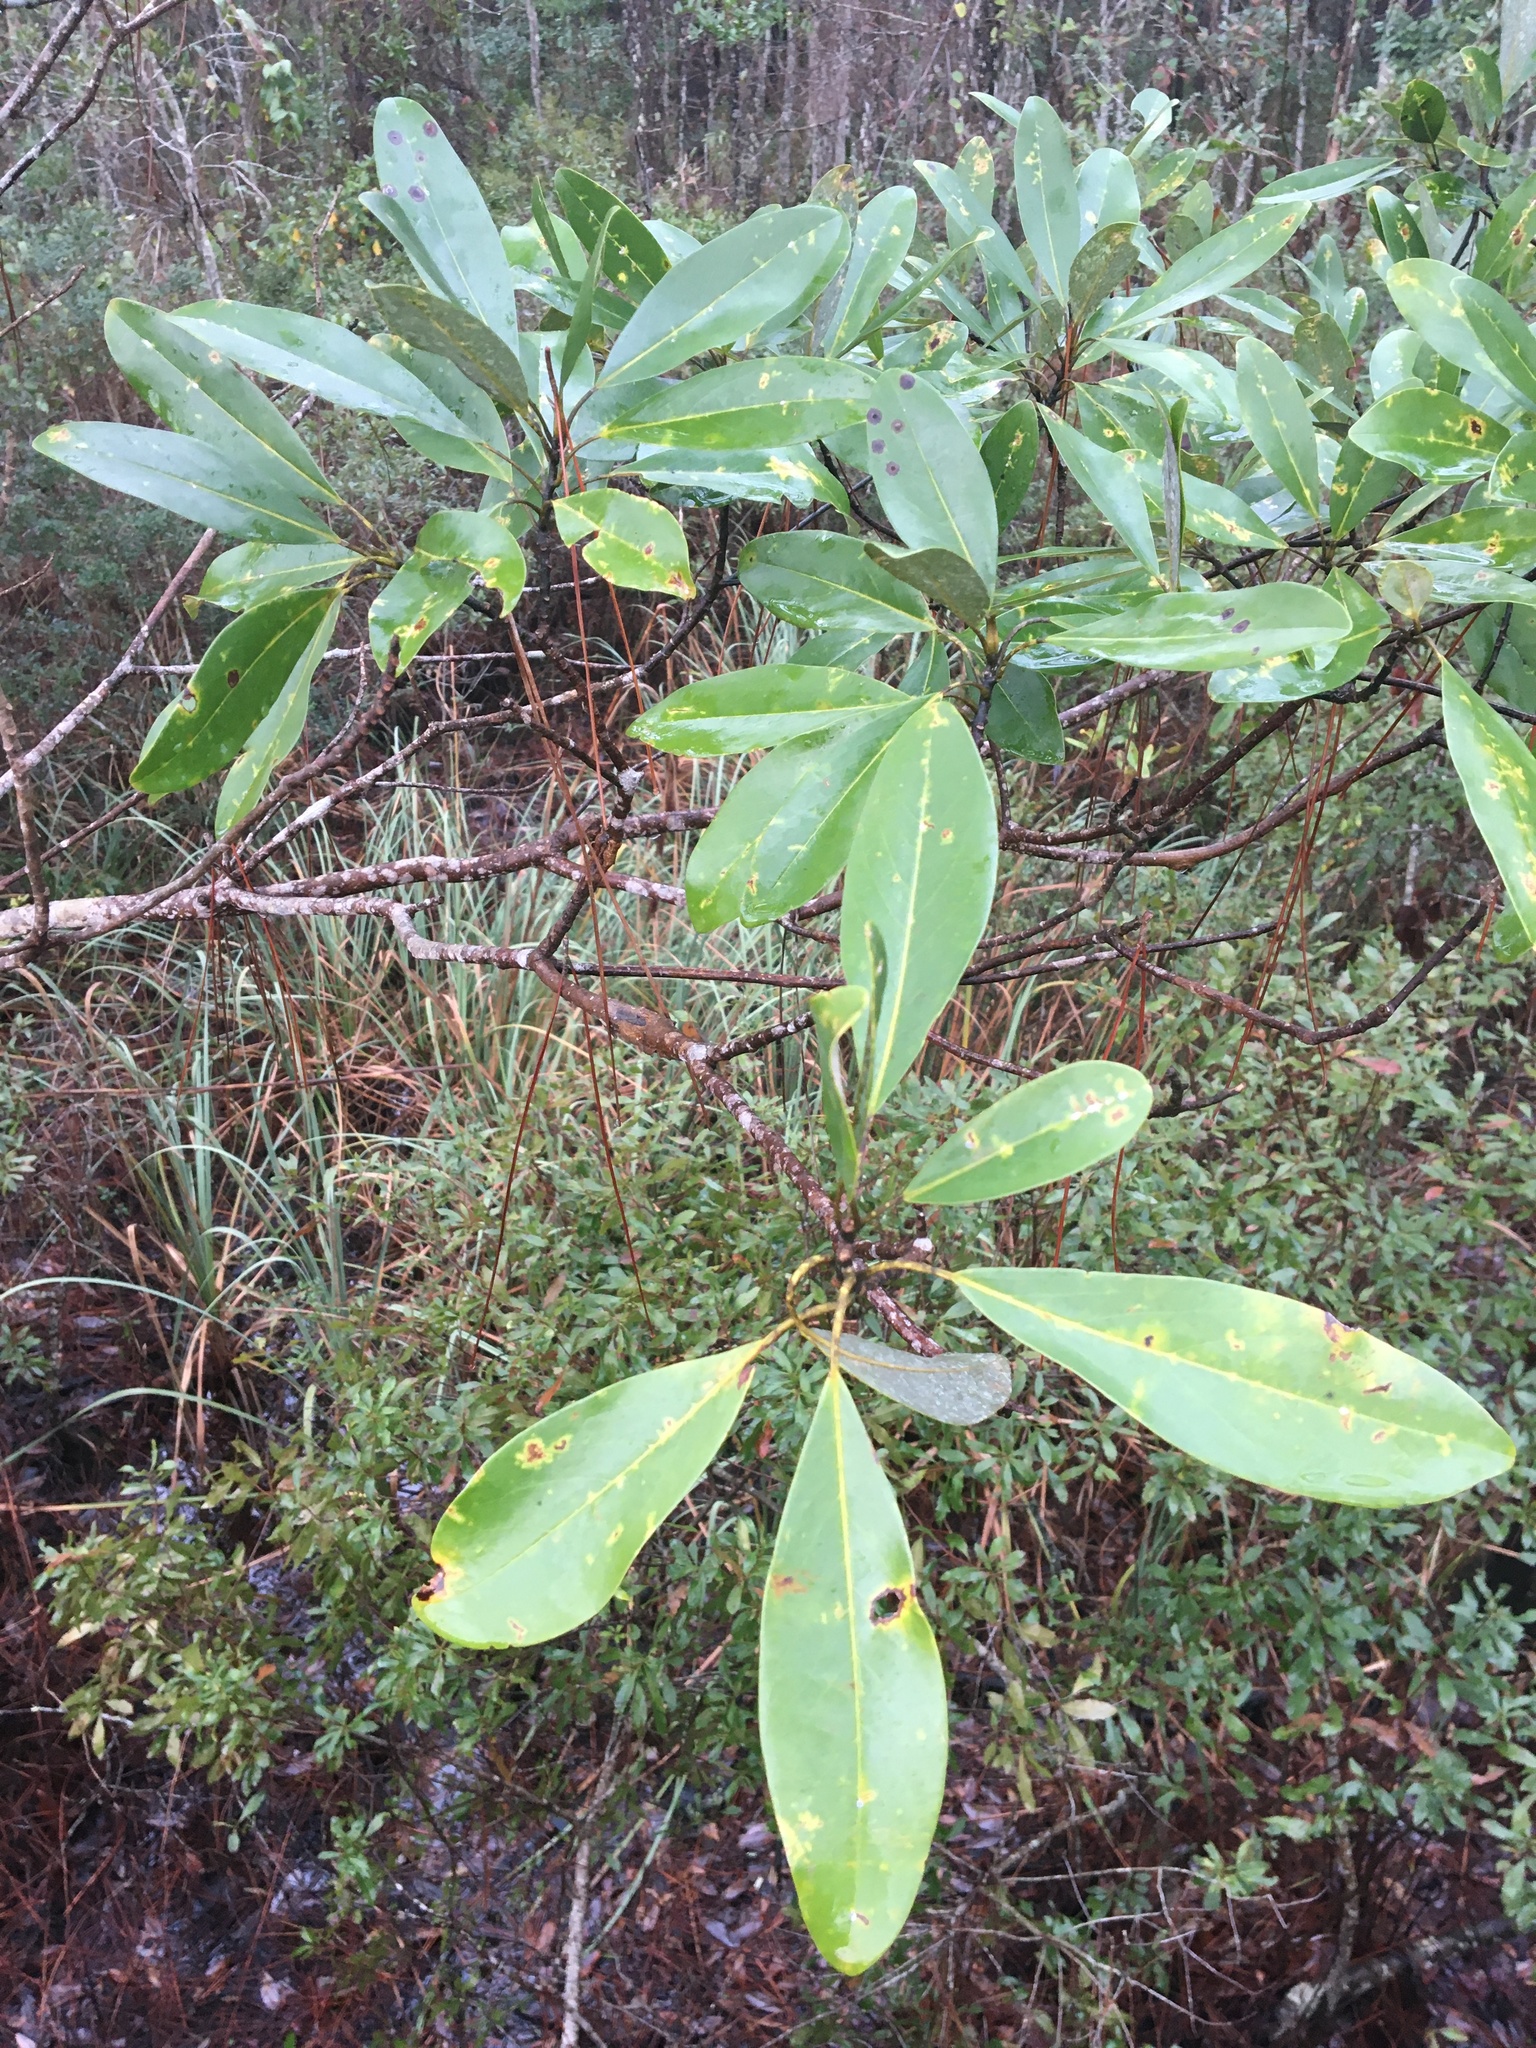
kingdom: Plantae
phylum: Tracheophyta
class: Magnoliopsida
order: Magnoliales
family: Magnoliaceae
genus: Magnolia
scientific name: Magnolia virginiana
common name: Swamp bay
